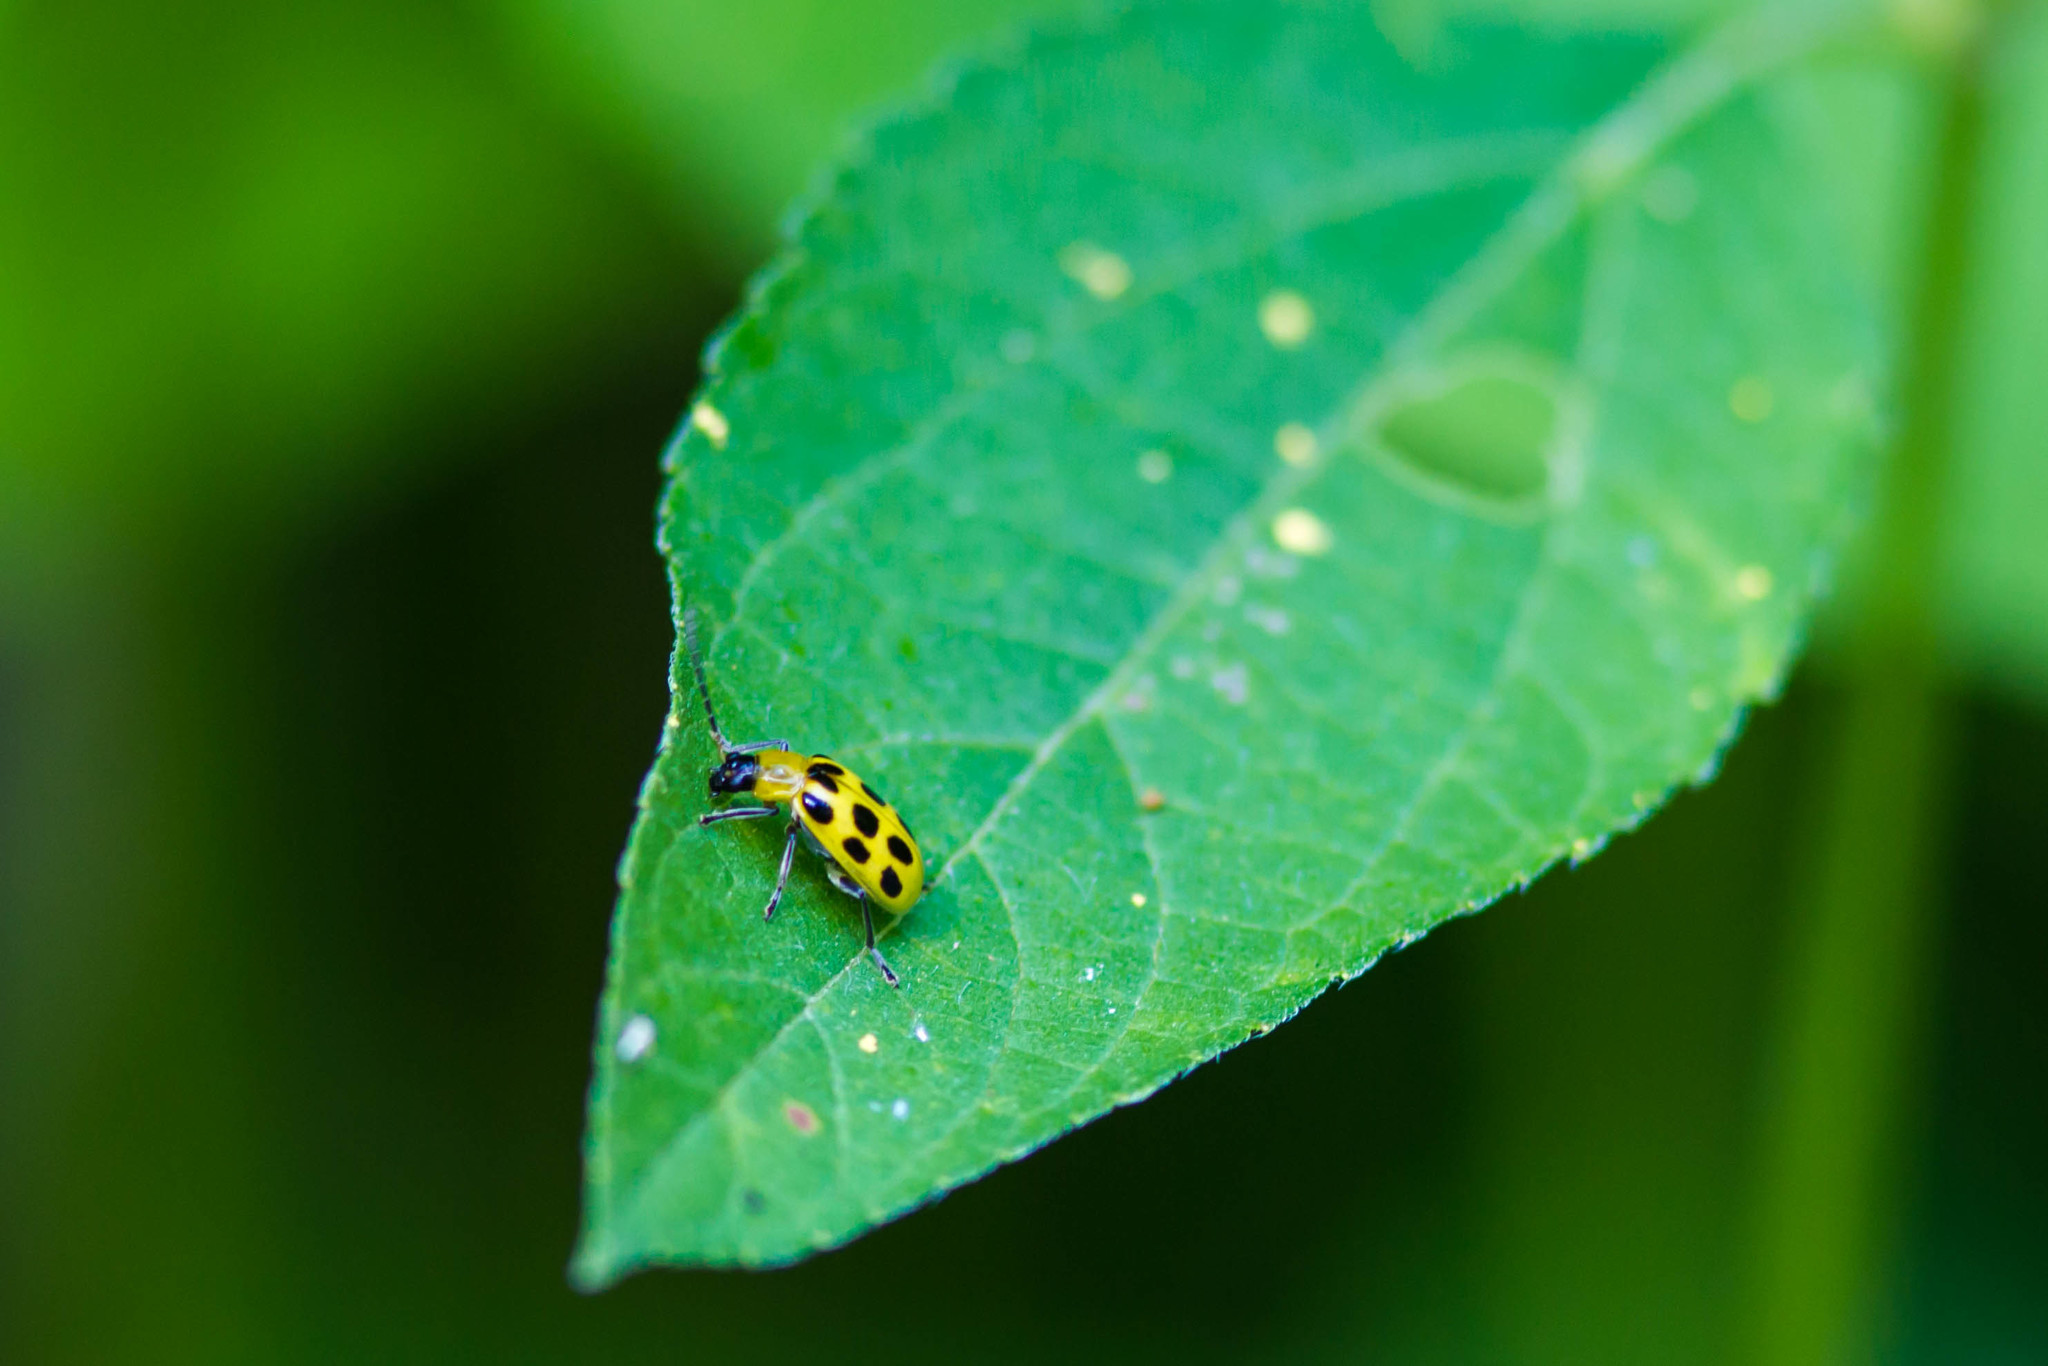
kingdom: Animalia
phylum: Arthropoda
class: Insecta
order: Coleoptera
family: Chrysomelidae
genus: Diabrotica
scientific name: Diabrotica undecimpunctata
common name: Spotted cucumber beetle
